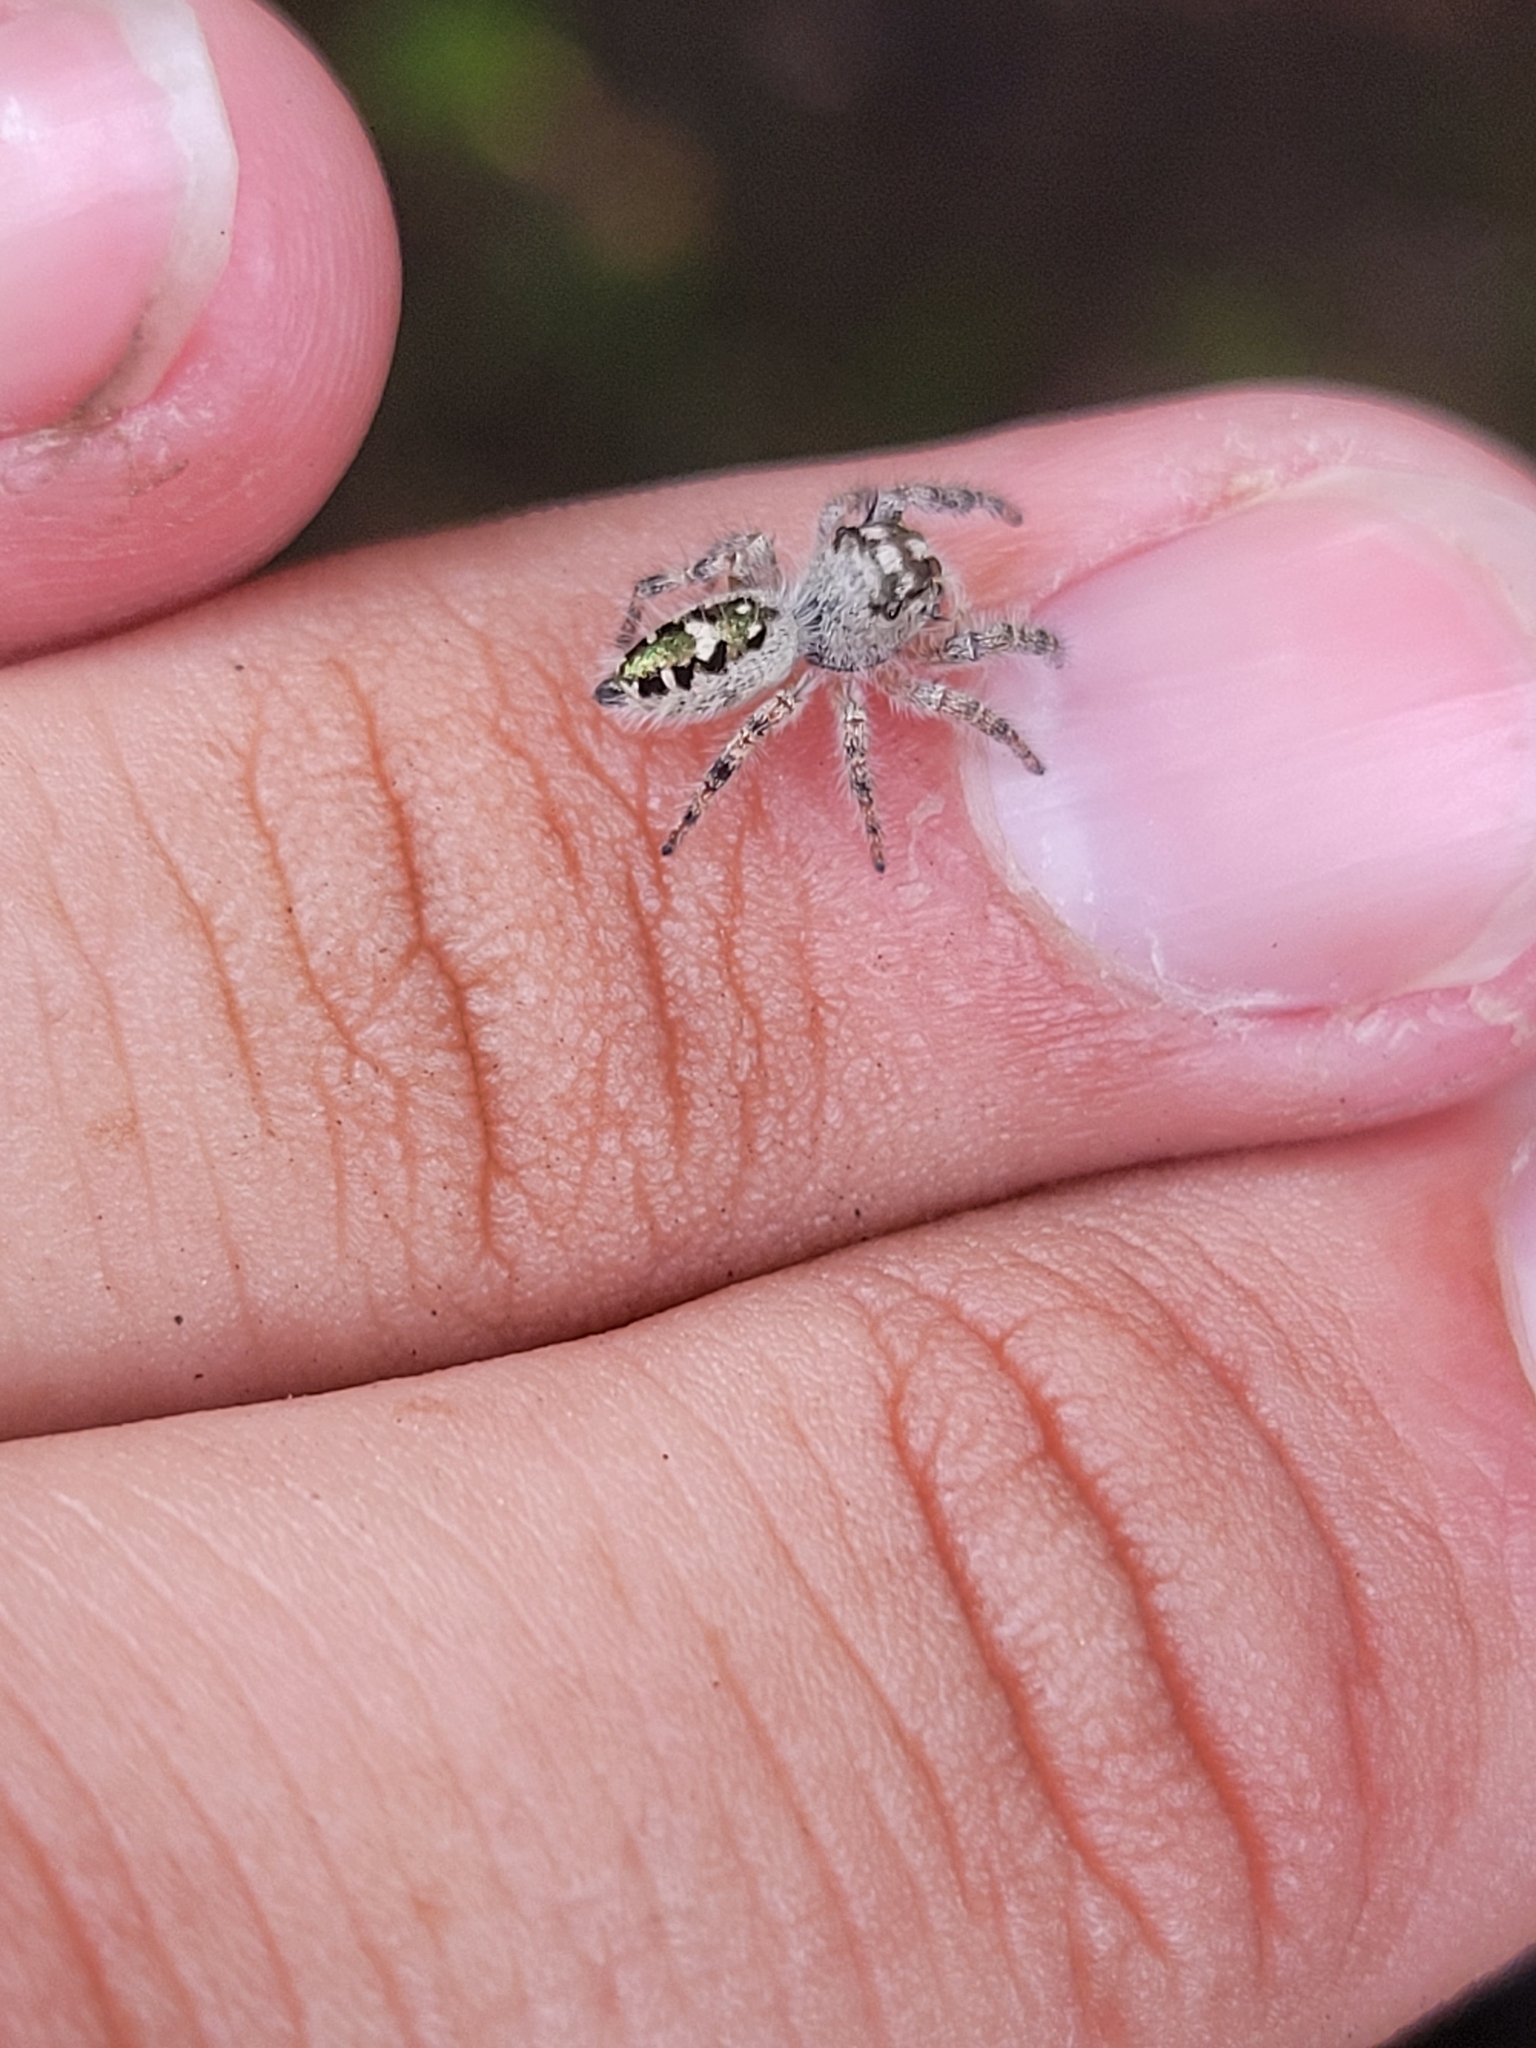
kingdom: Animalia
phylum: Arthropoda
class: Arachnida
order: Araneae
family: Salticidae
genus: Phidippus
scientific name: Phidippus otiosus
